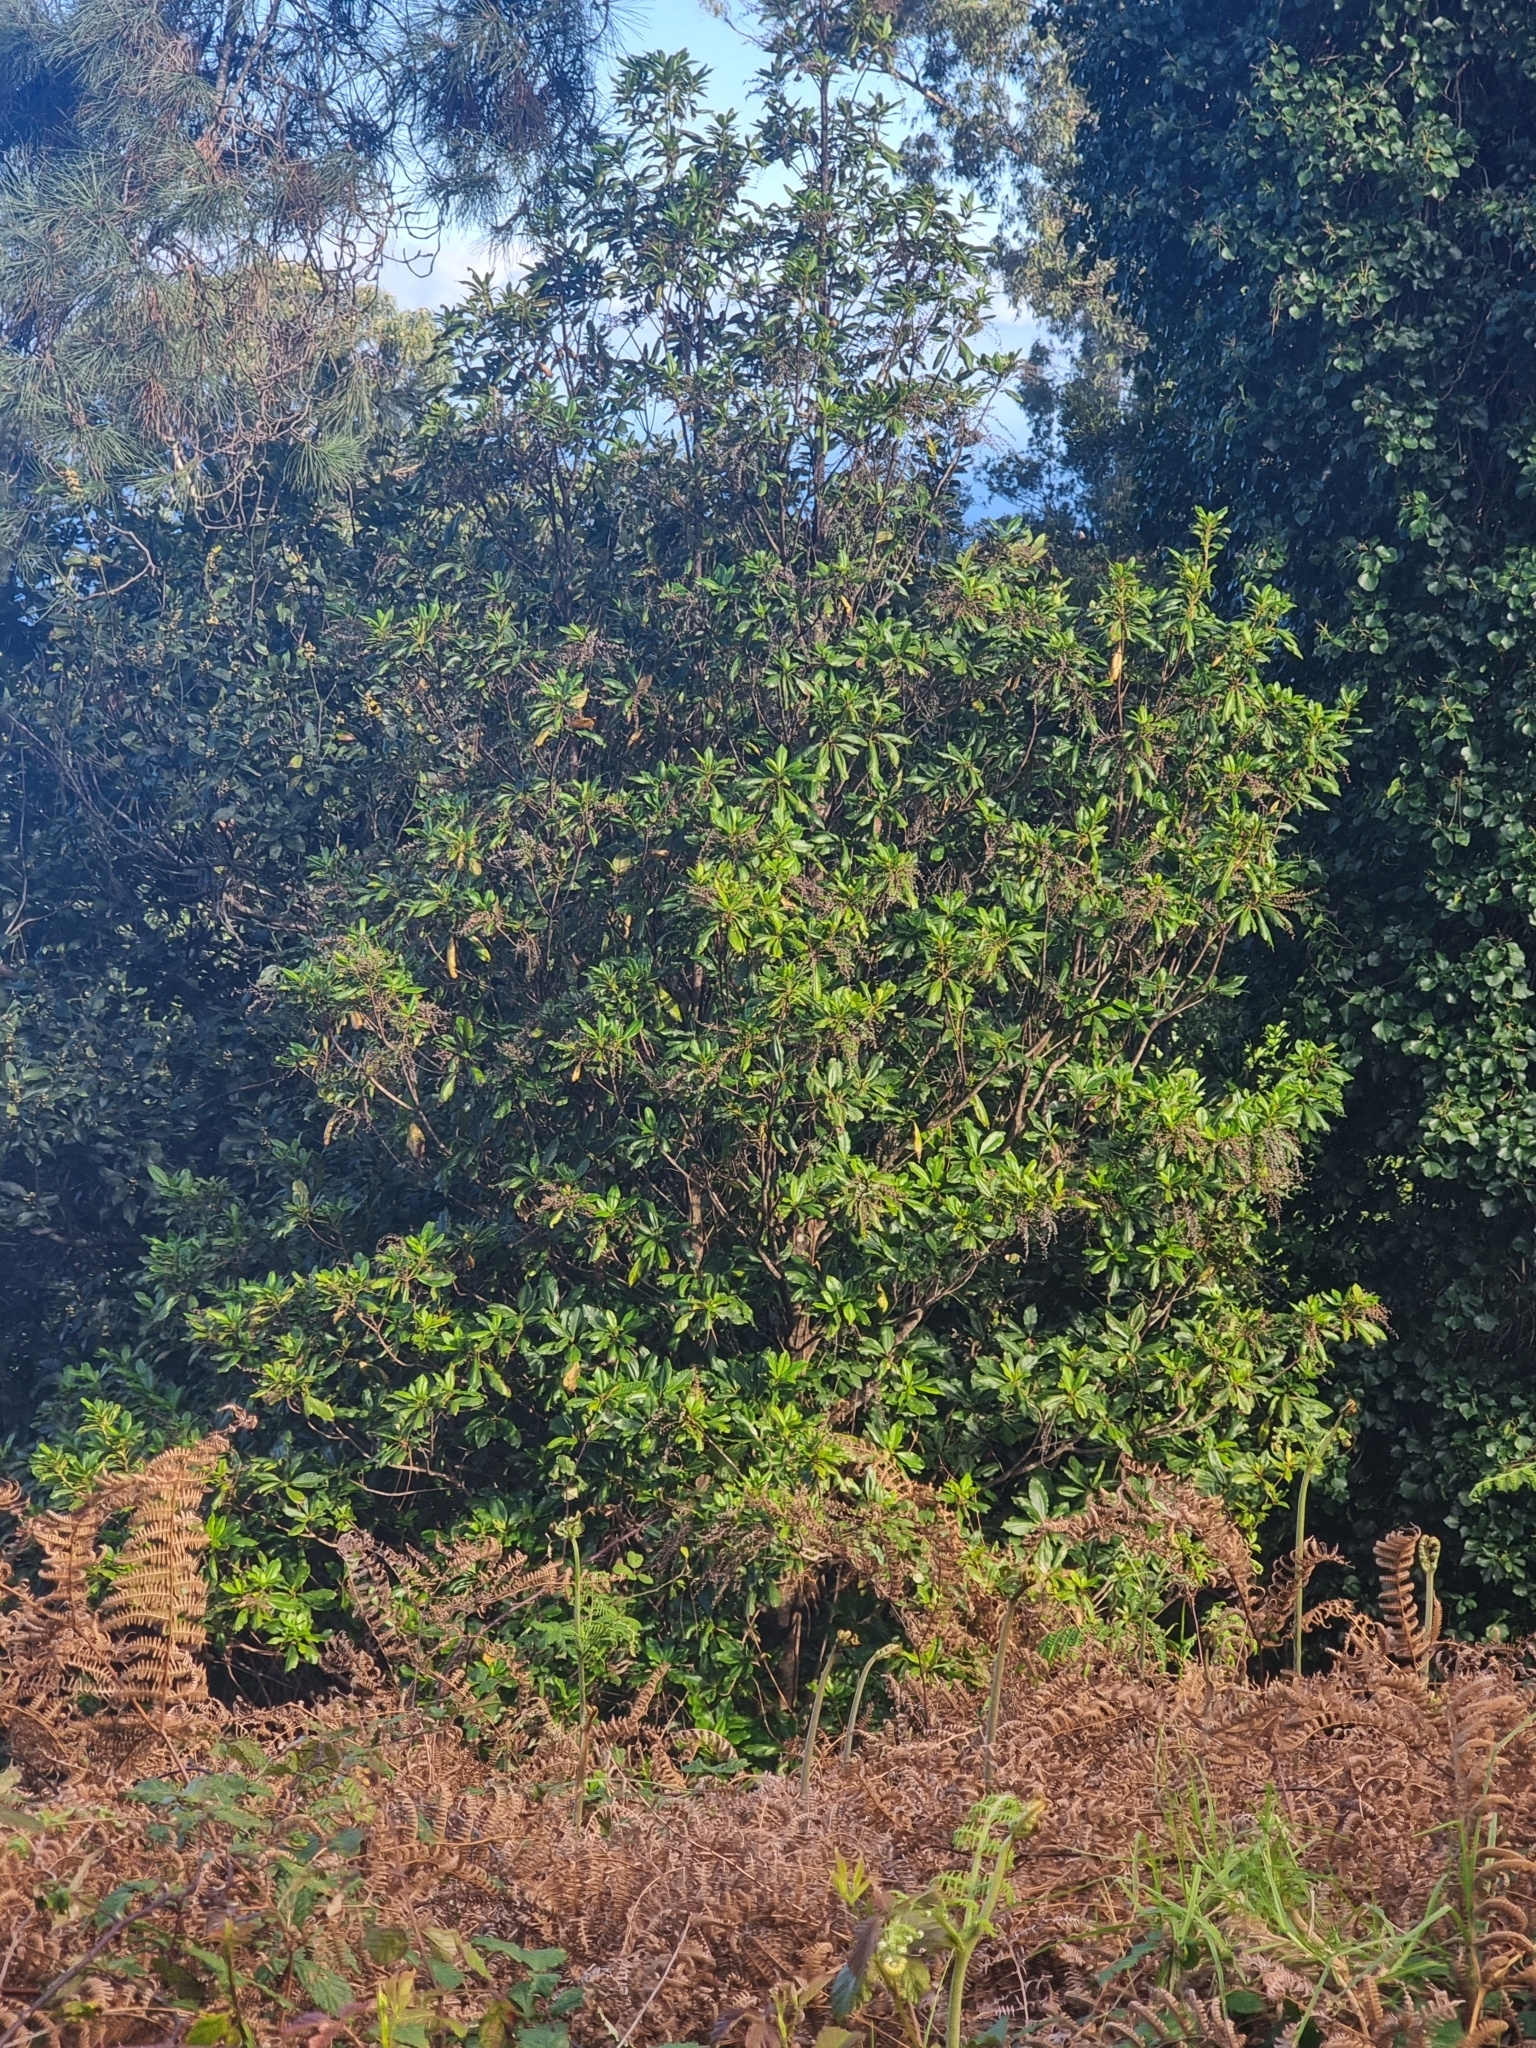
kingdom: Plantae
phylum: Tracheophyta
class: Magnoliopsida
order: Ericales
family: Clethraceae
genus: Clethra
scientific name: Clethra arborea
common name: Lily-of-the-valley-tree
